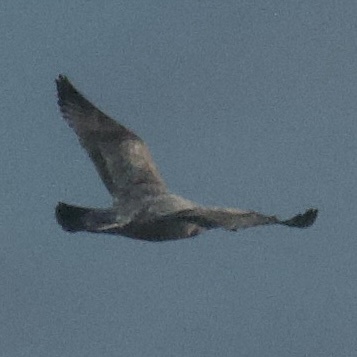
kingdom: Animalia
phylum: Chordata
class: Aves
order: Charadriiformes
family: Laridae
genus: Larus
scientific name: Larus argentatus
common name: Herring gull
